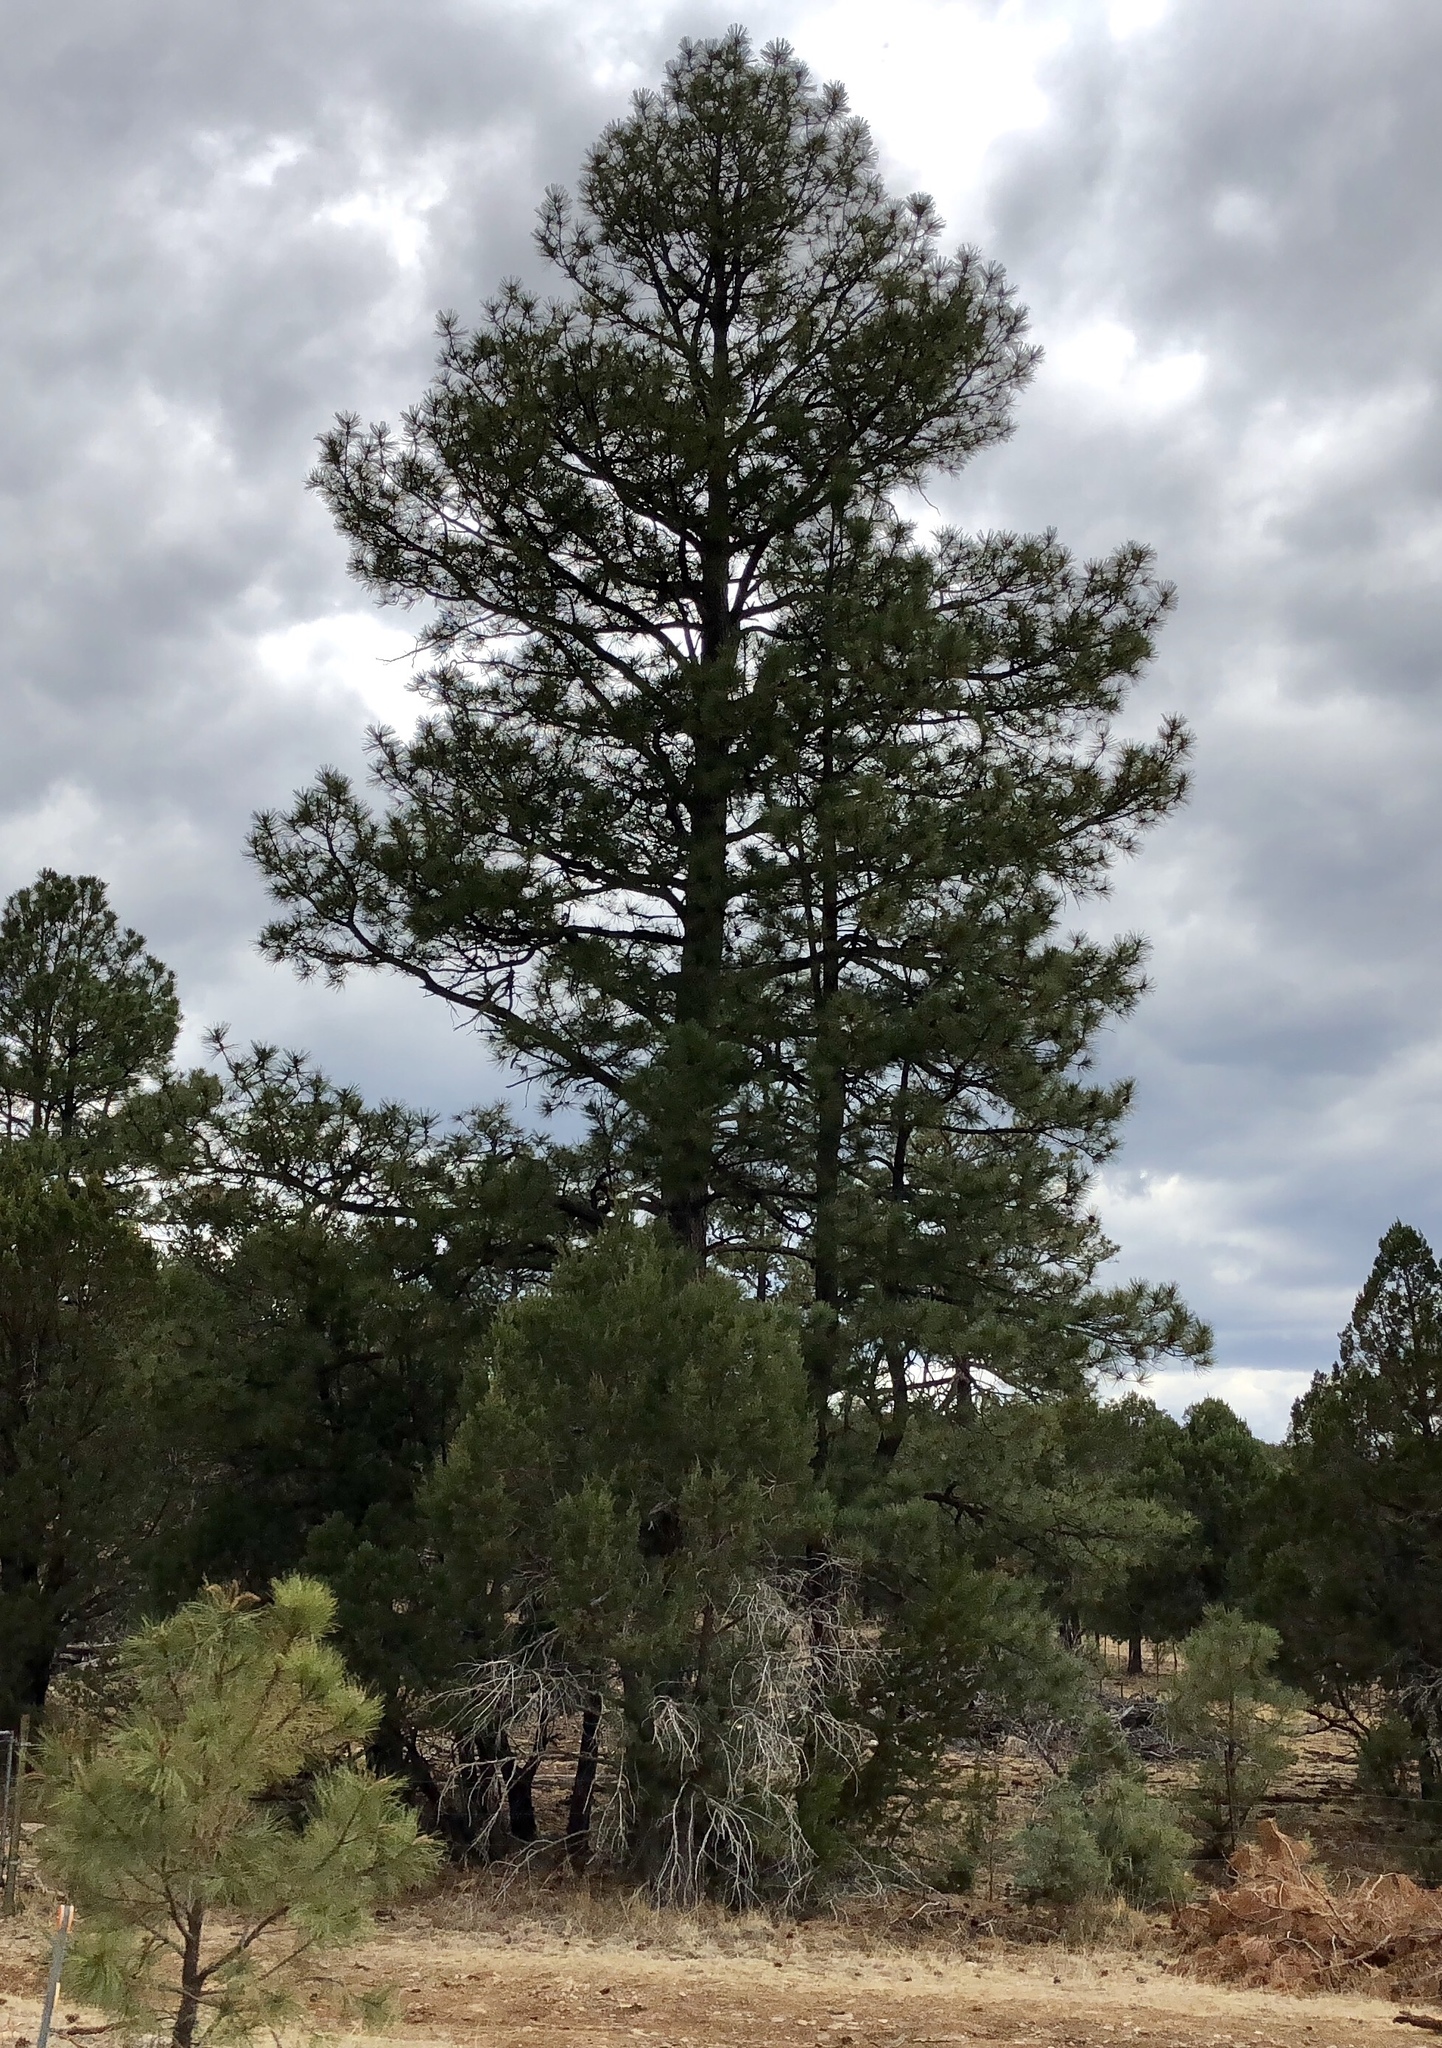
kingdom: Plantae
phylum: Tracheophyta
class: Pinopsida
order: Pinales
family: Pinaceae
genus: Pinus
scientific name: Pinus ponderosa
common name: Western yellow-pine
